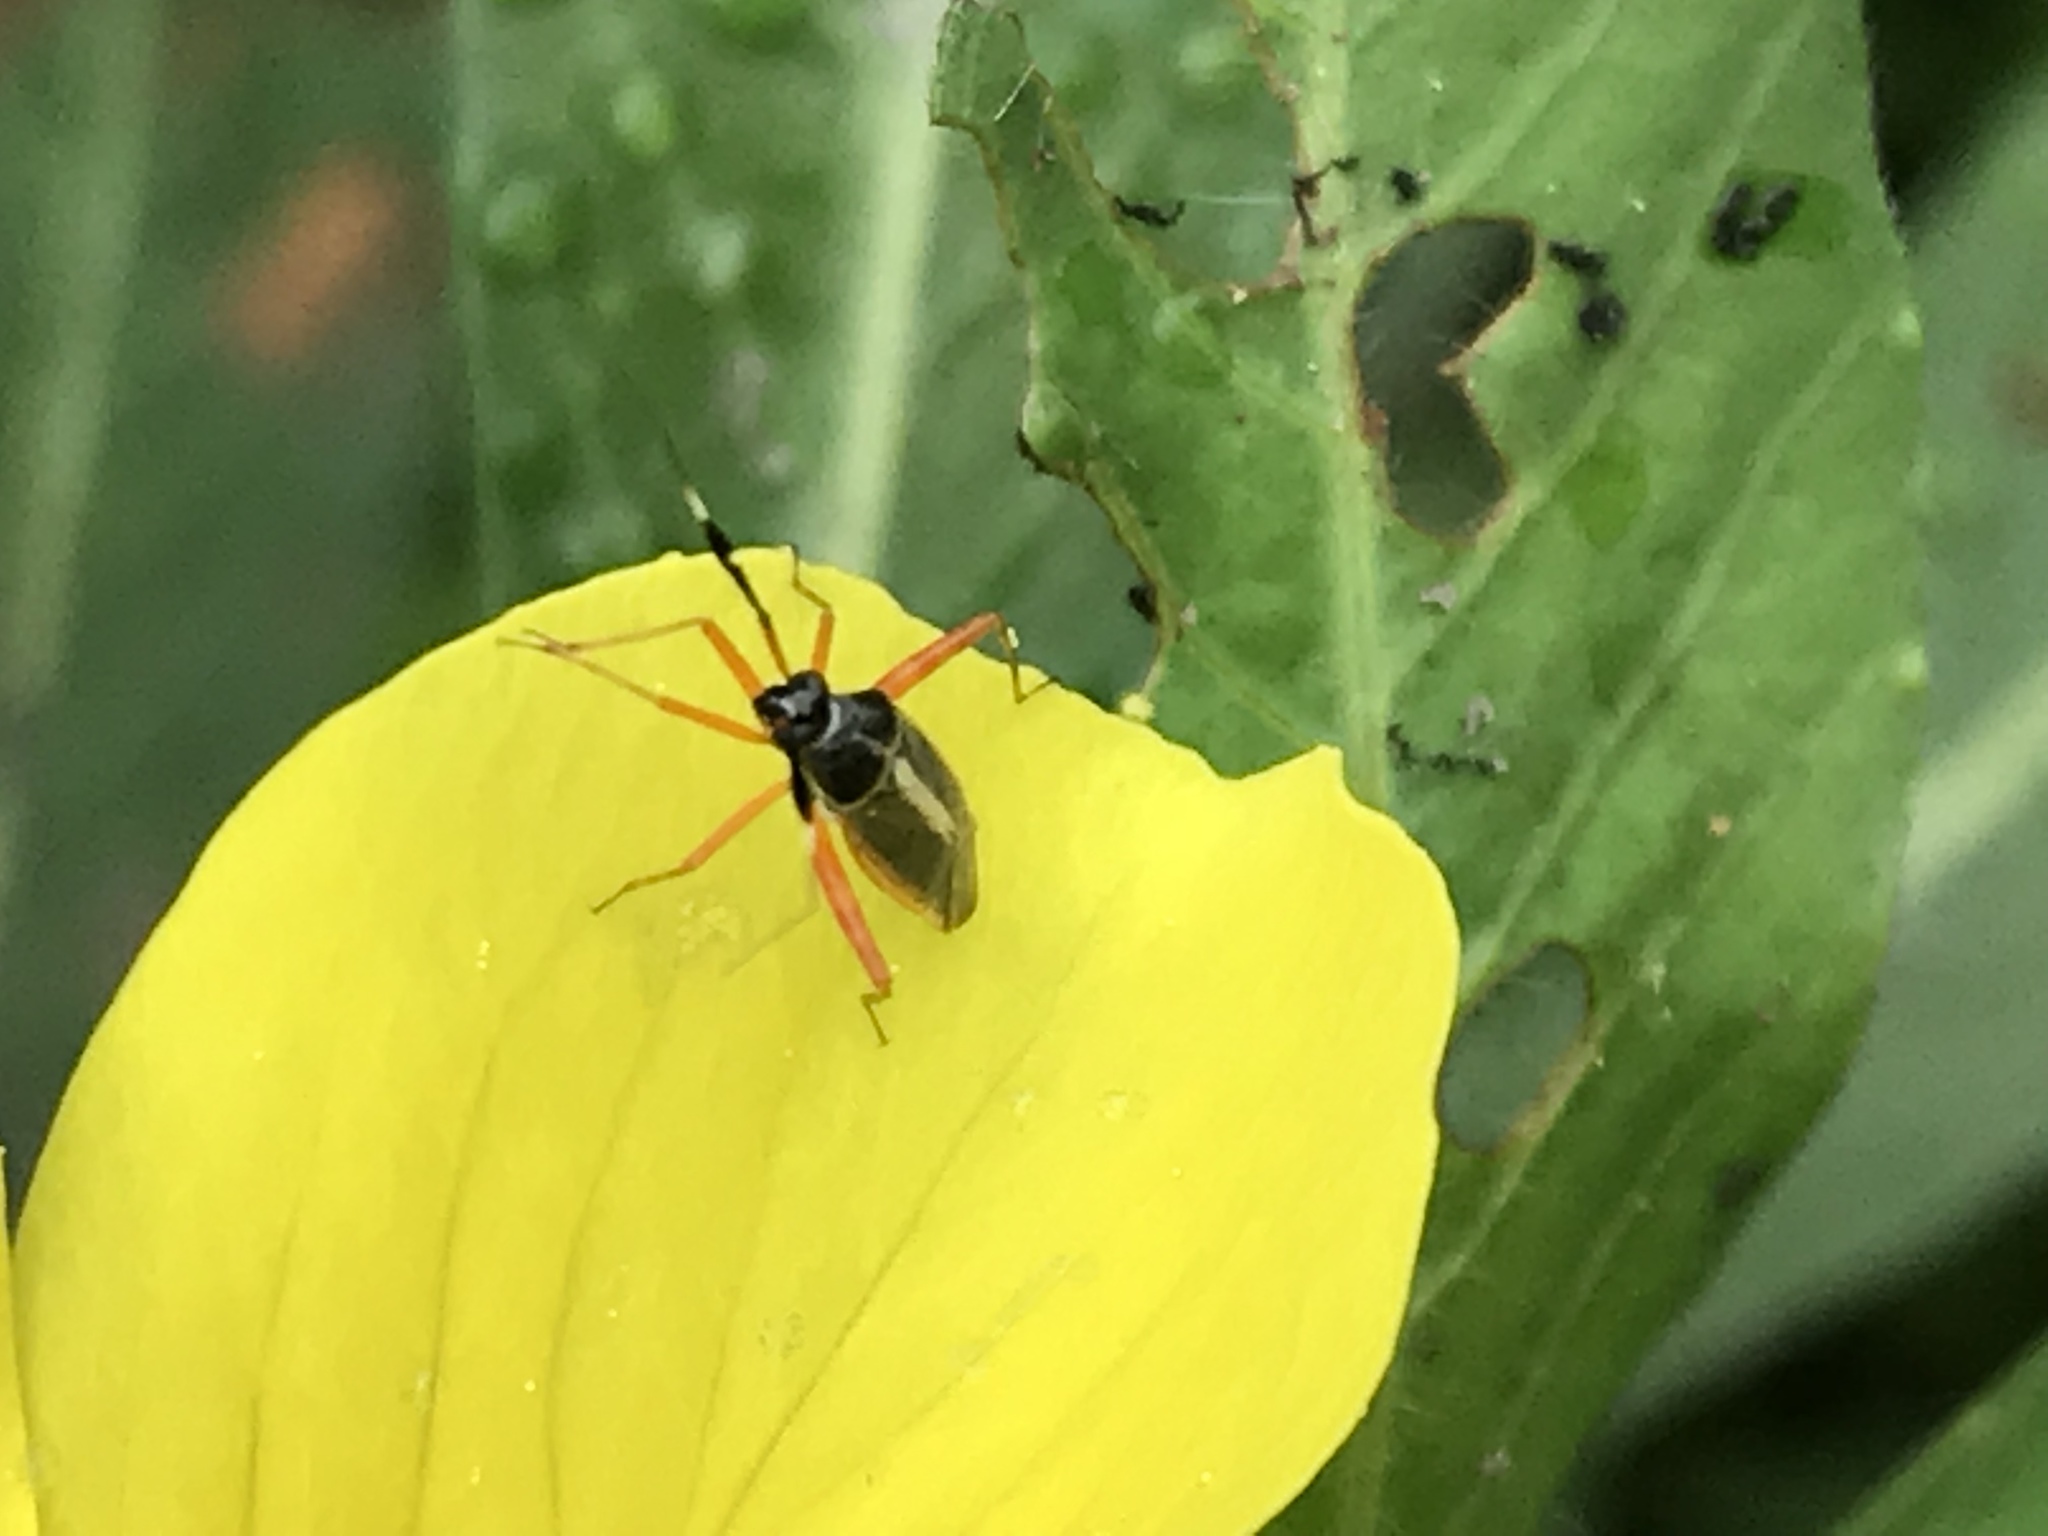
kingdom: Animalia
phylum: Arthropoda
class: Insecta
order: Hemiptera
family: Miridae
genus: Garganus
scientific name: Garganus albidivittis
